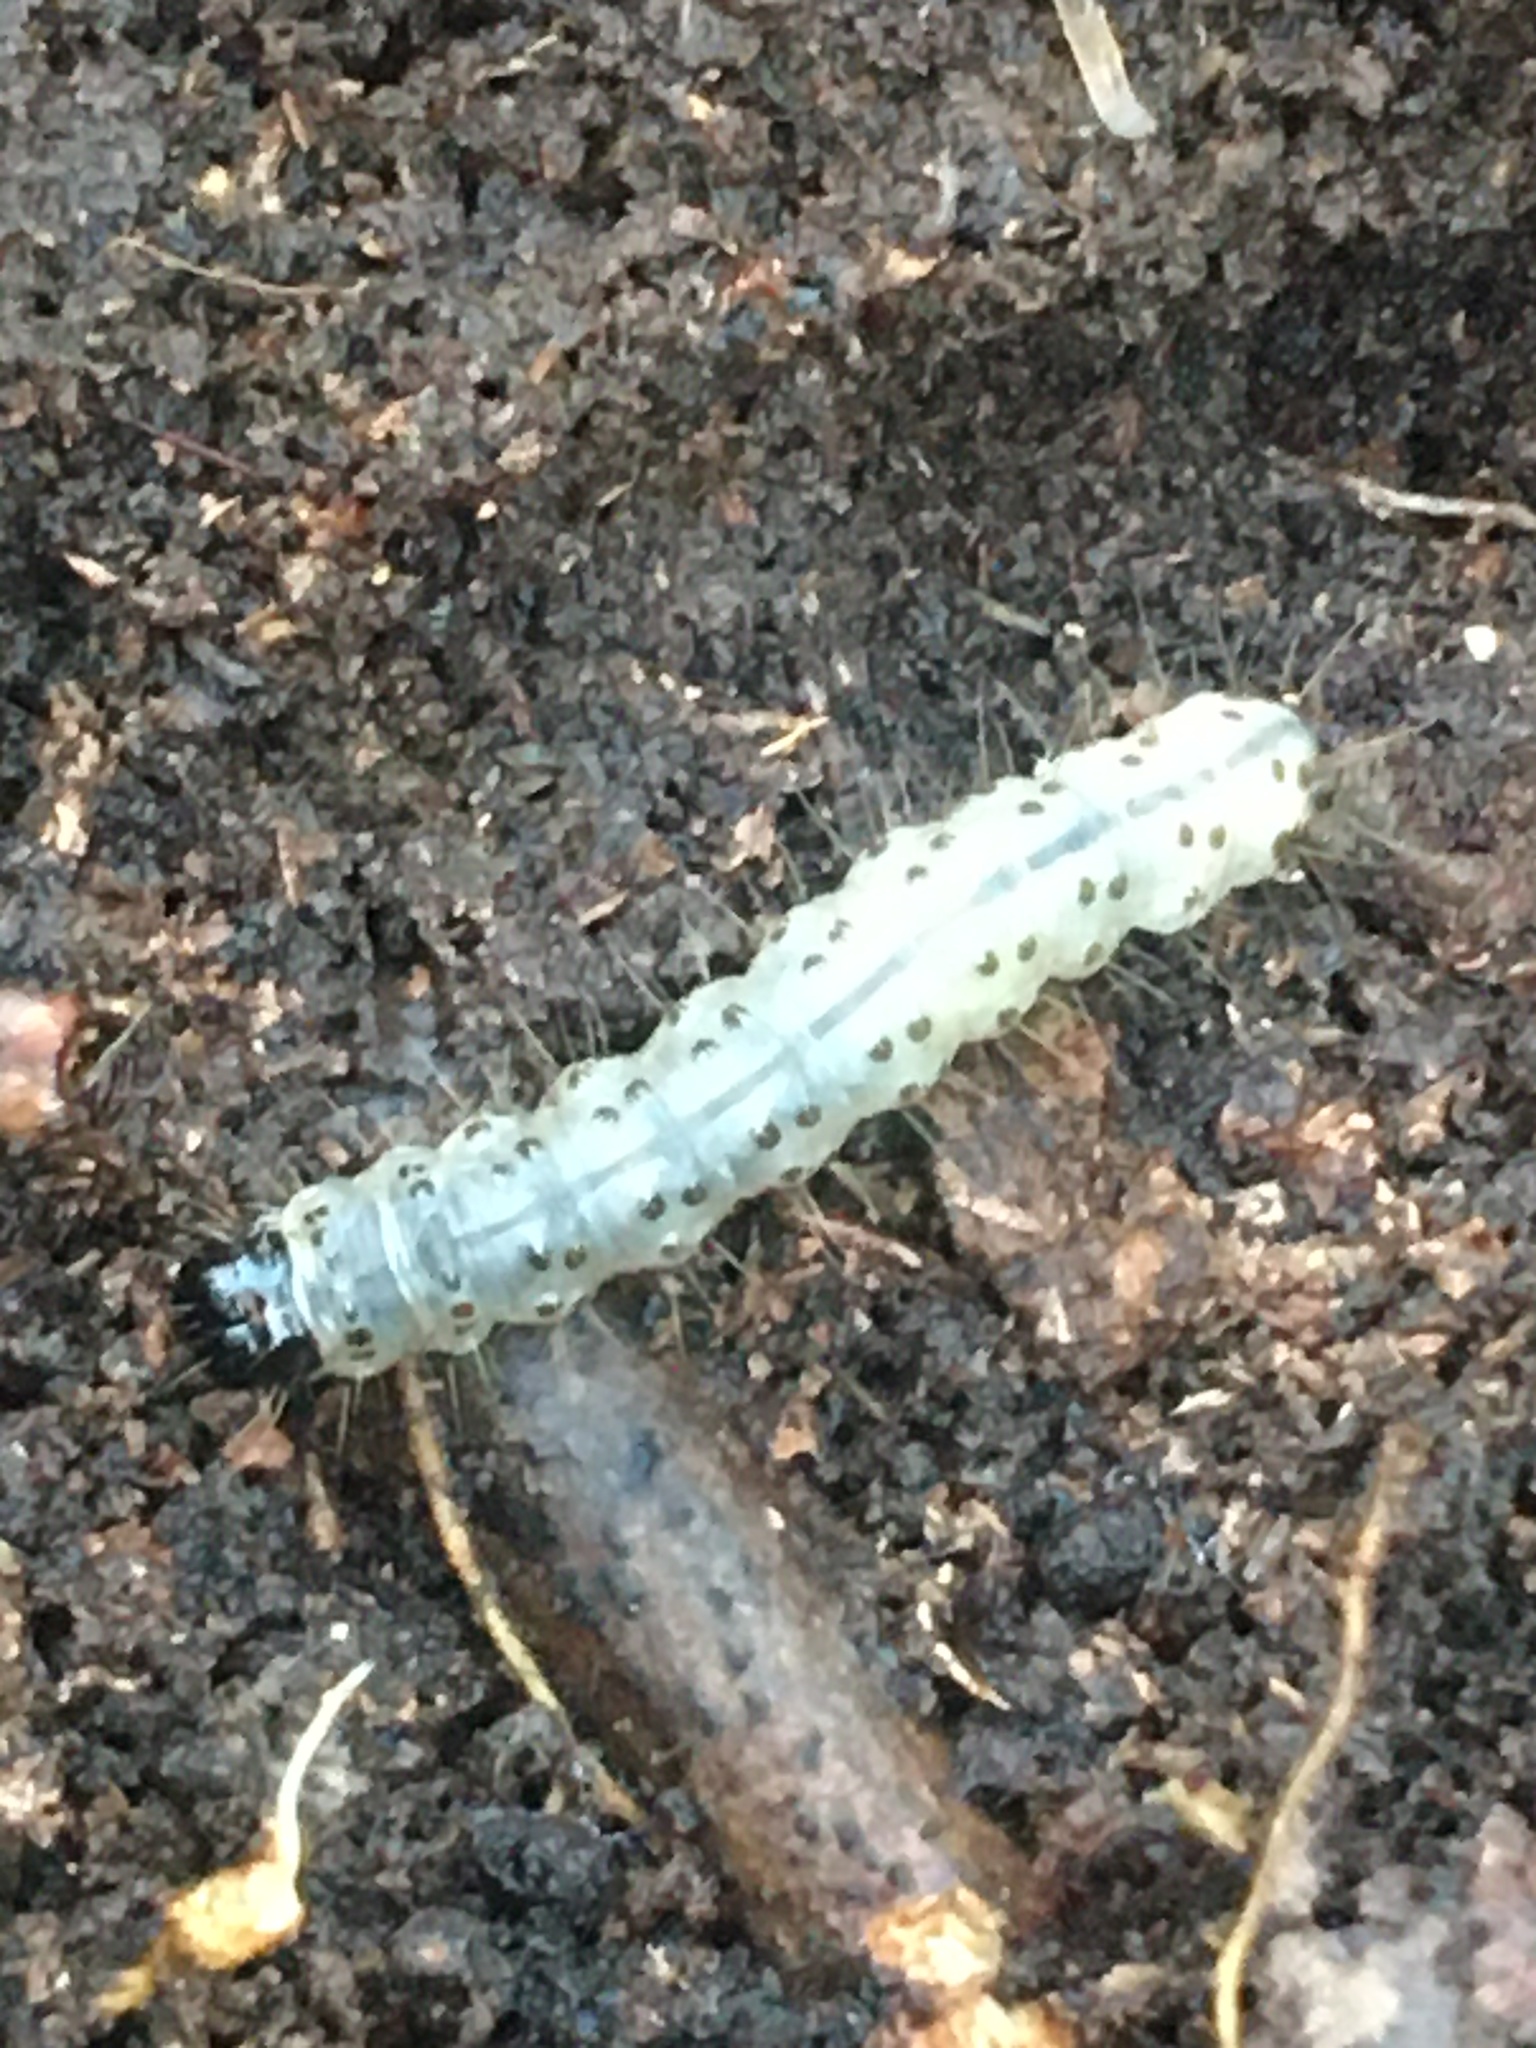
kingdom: Animalia
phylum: Arthropoda
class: Insecta
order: Lepidoptera
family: Erebidae
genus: Scolecocampa
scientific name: Scolecocampa liburna
